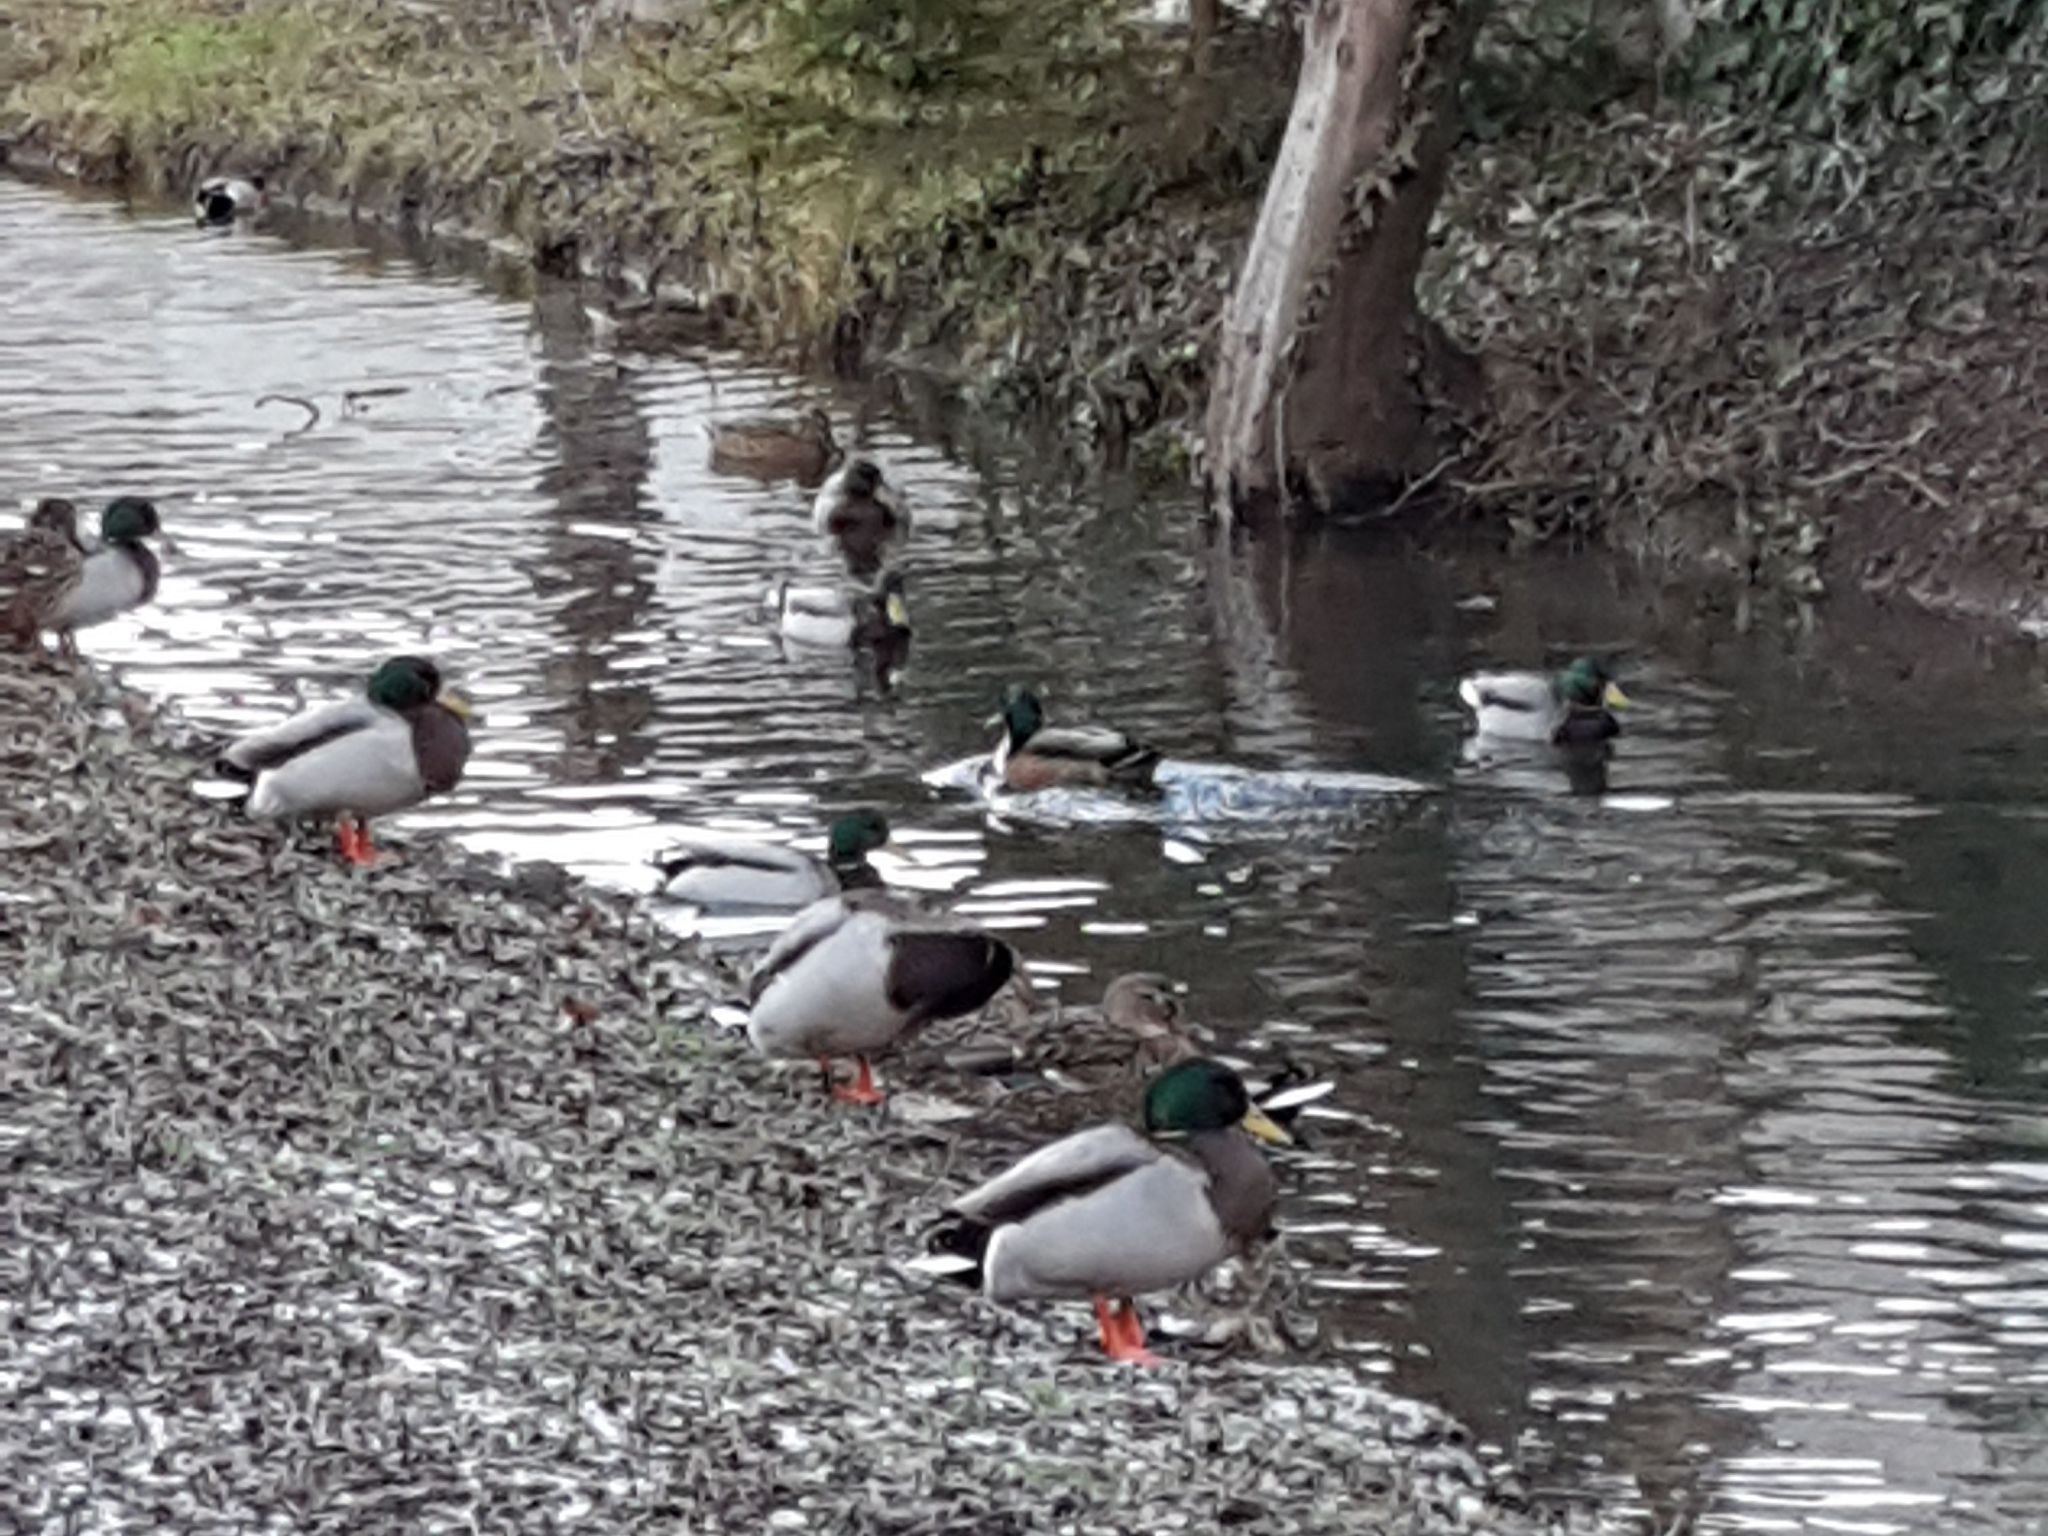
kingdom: Animalia
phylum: Chordata
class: Aves
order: Anseriformes
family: Anatidae
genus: Anas
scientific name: Anas platyrhynchos
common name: Mallard
